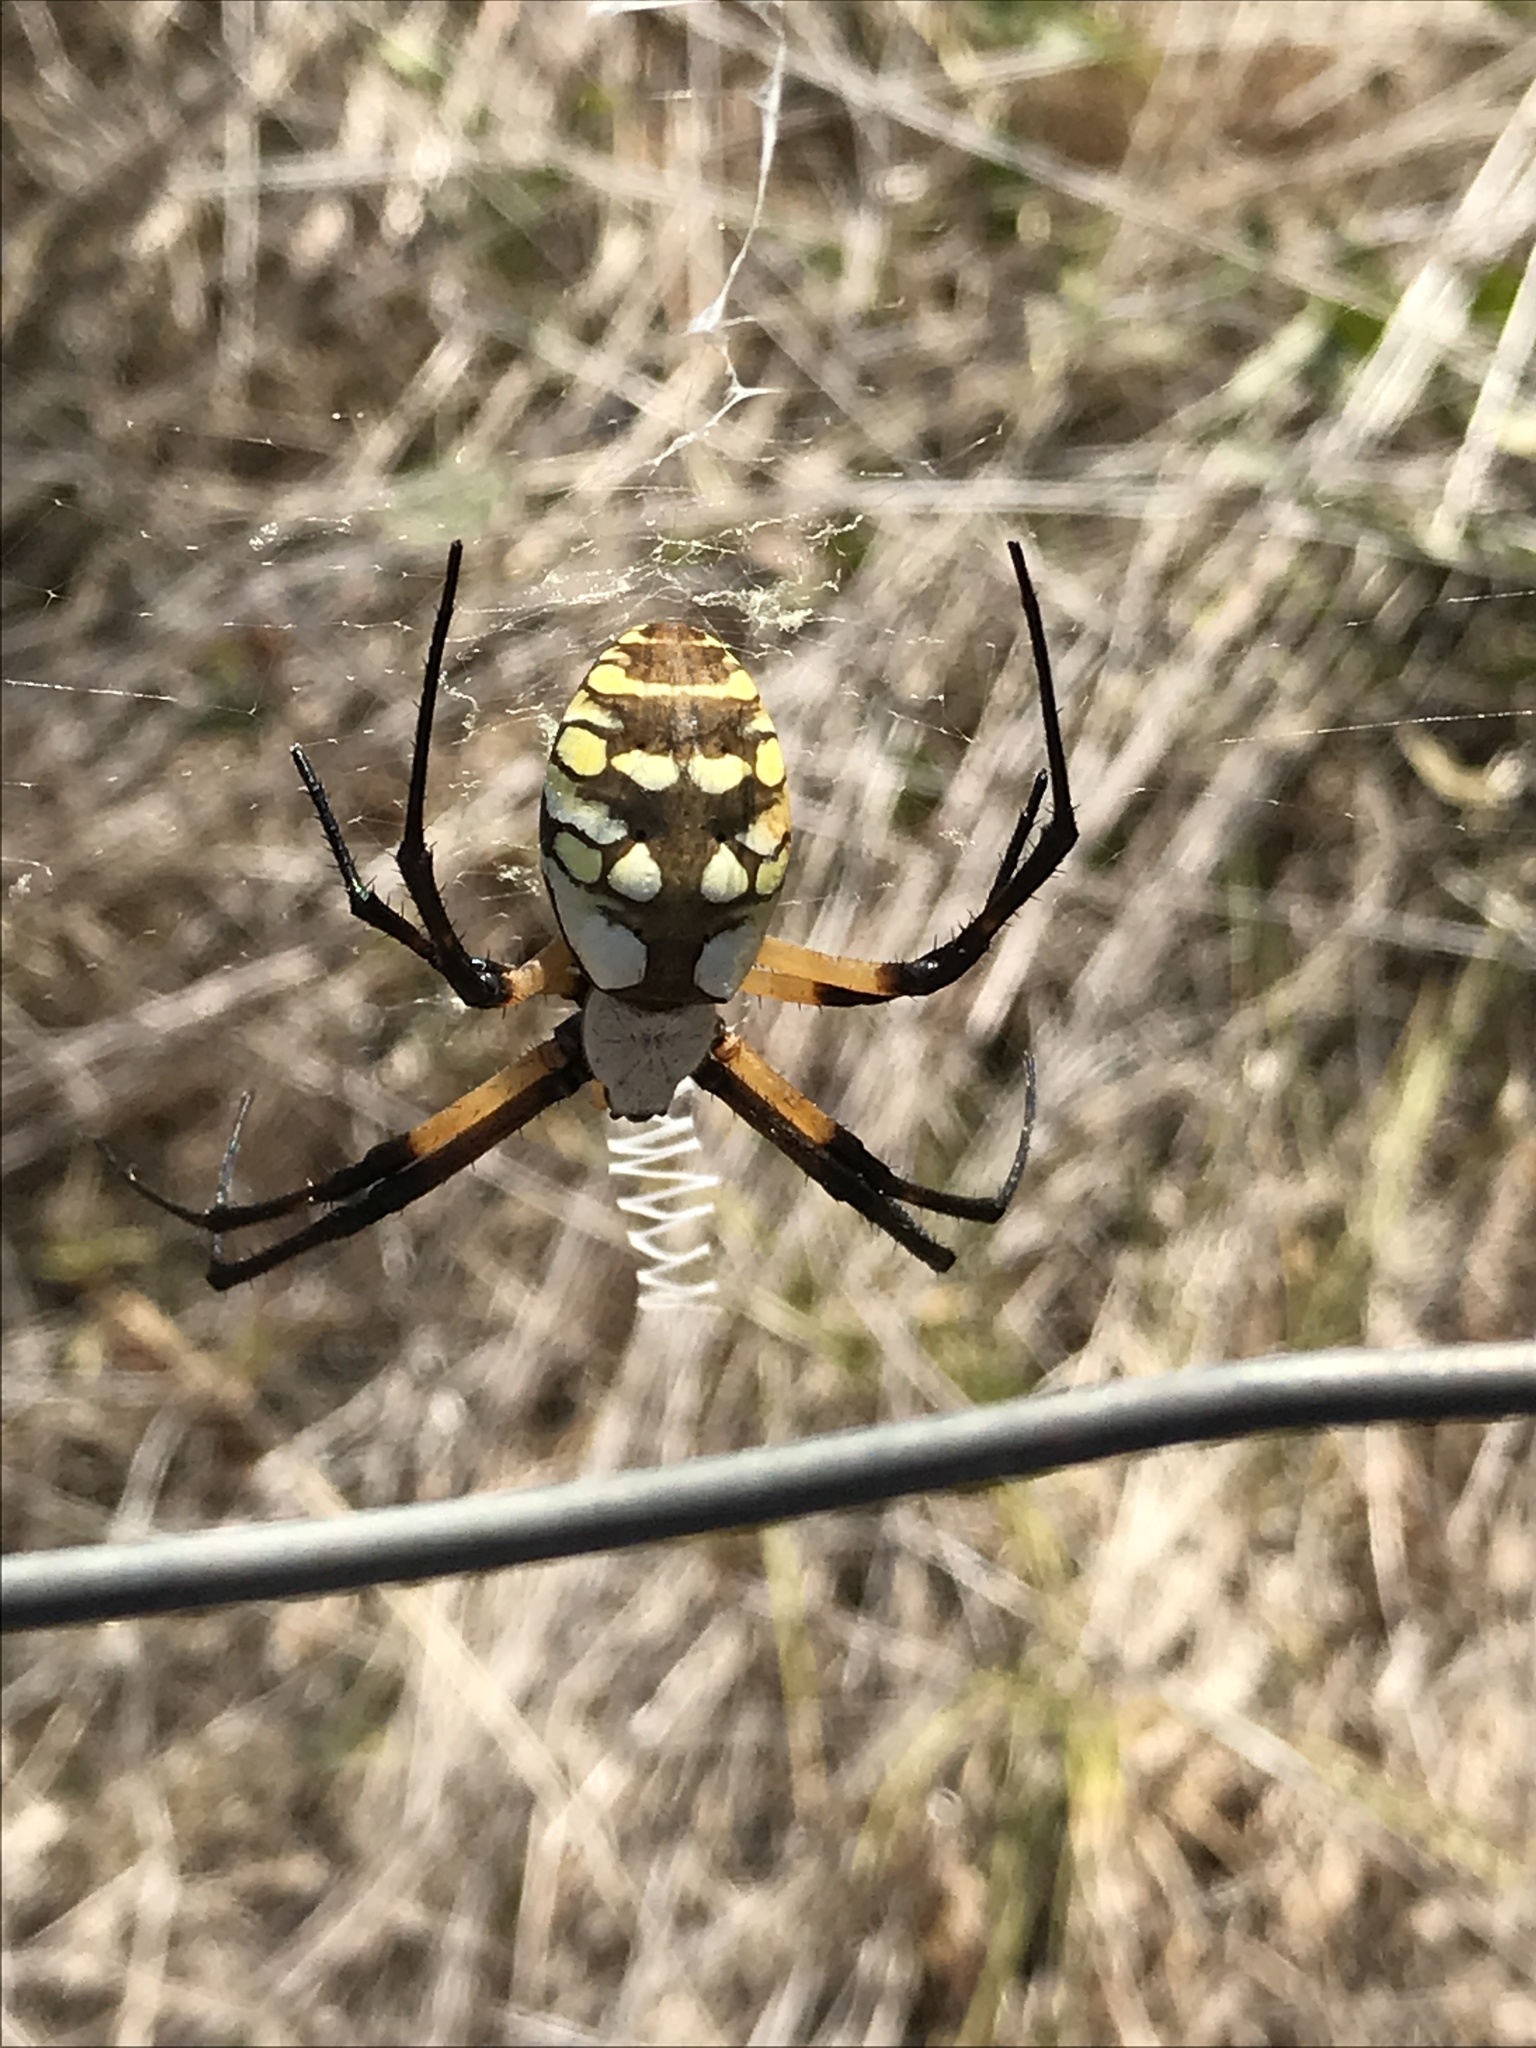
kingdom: Animalia
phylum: Arthropoda
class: Arachnida
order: Araneae
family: Araneidae
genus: Argiope
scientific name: Argiope aurantia
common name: Orb weavers
